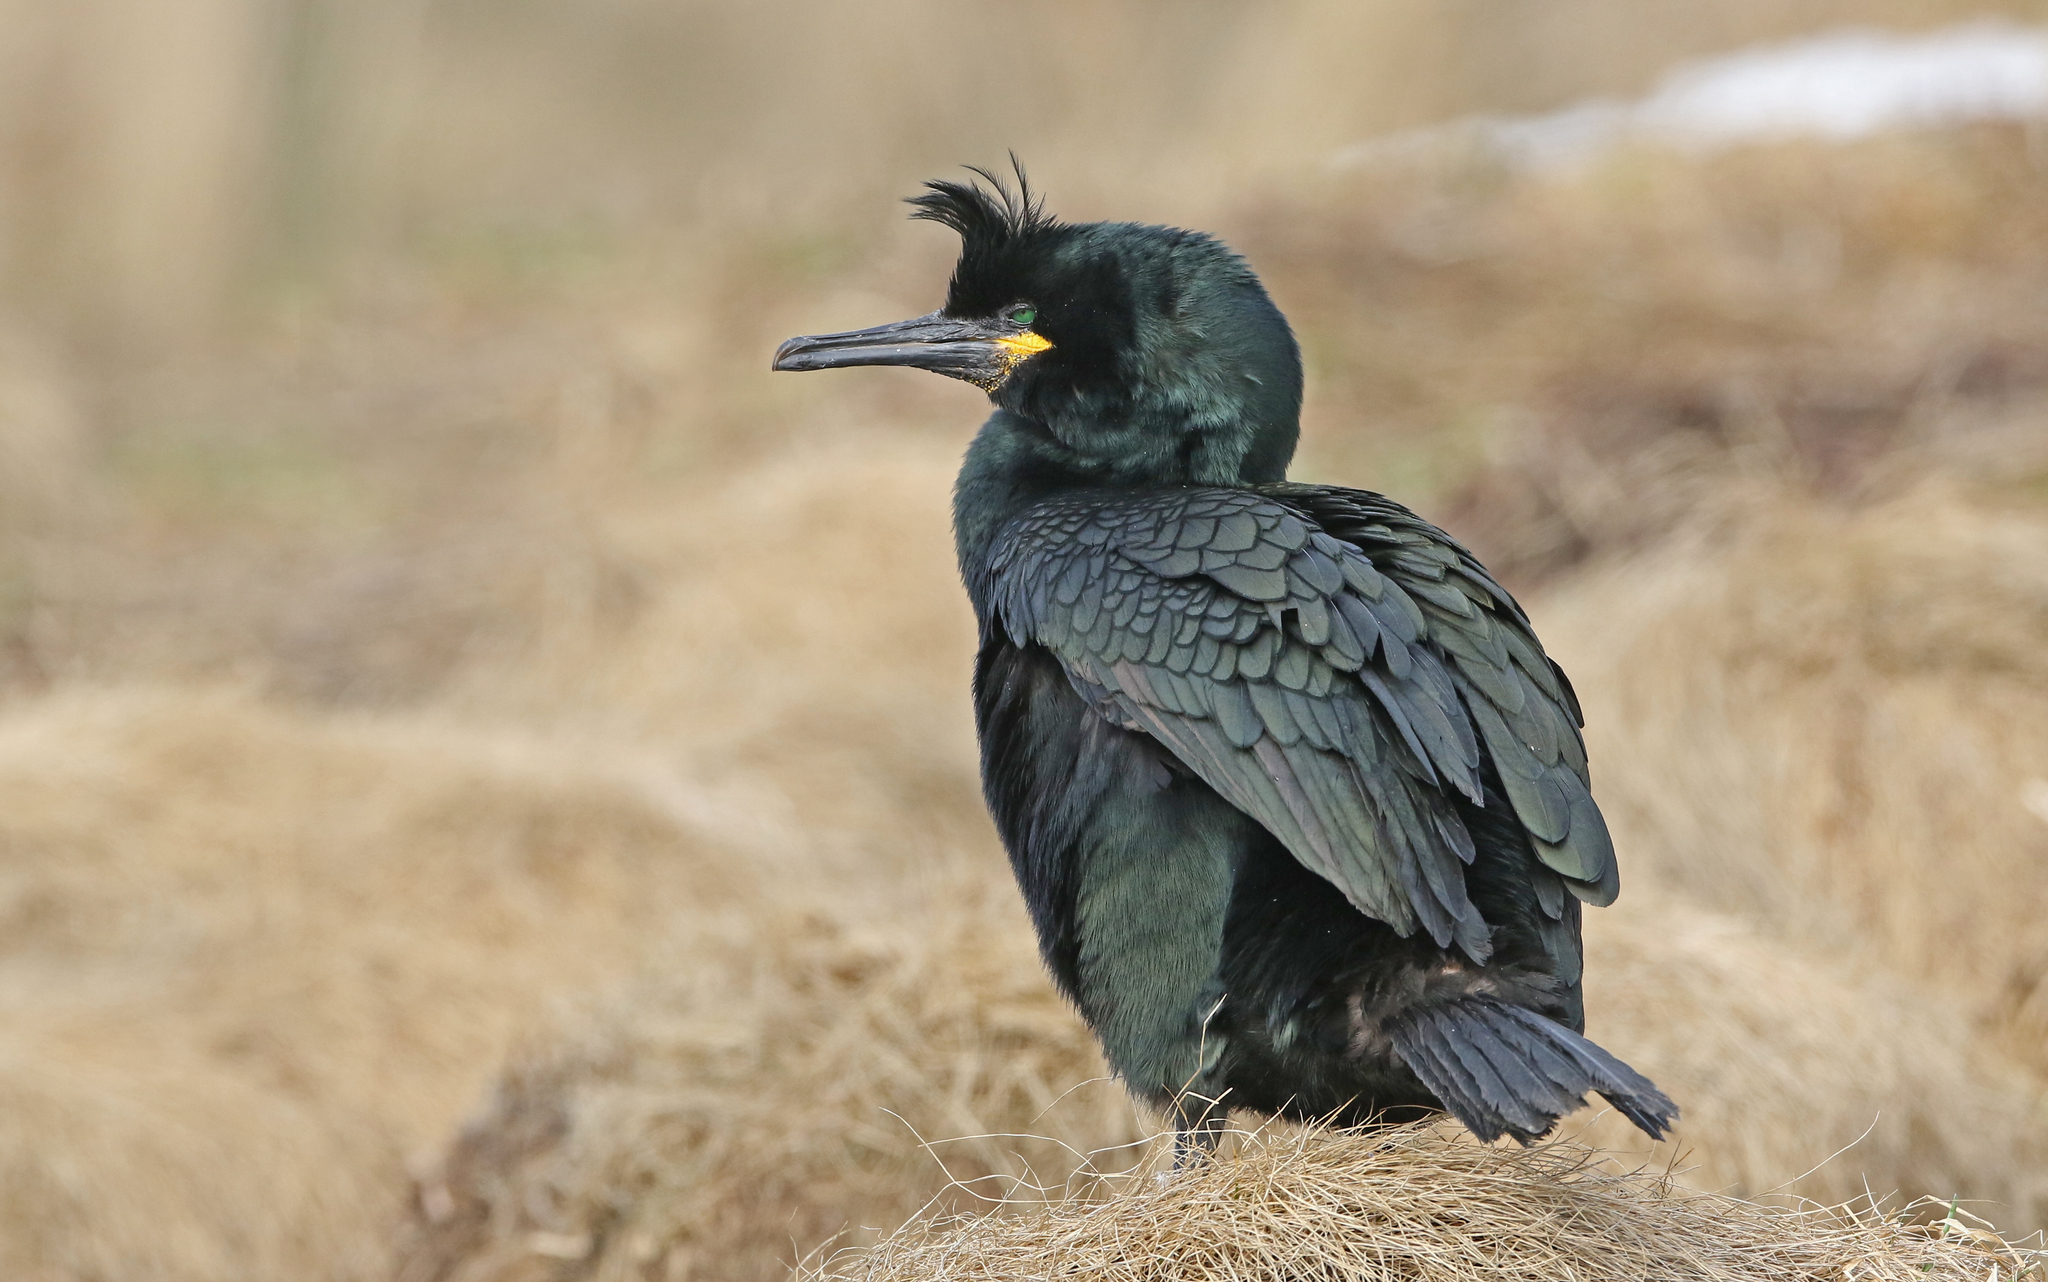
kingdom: Animalia
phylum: Chordata
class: Aves
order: Suliformes
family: Phalacrocoracidae
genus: Phalacrocorax
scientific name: Phalacrocorax aristotelis
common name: European shag
